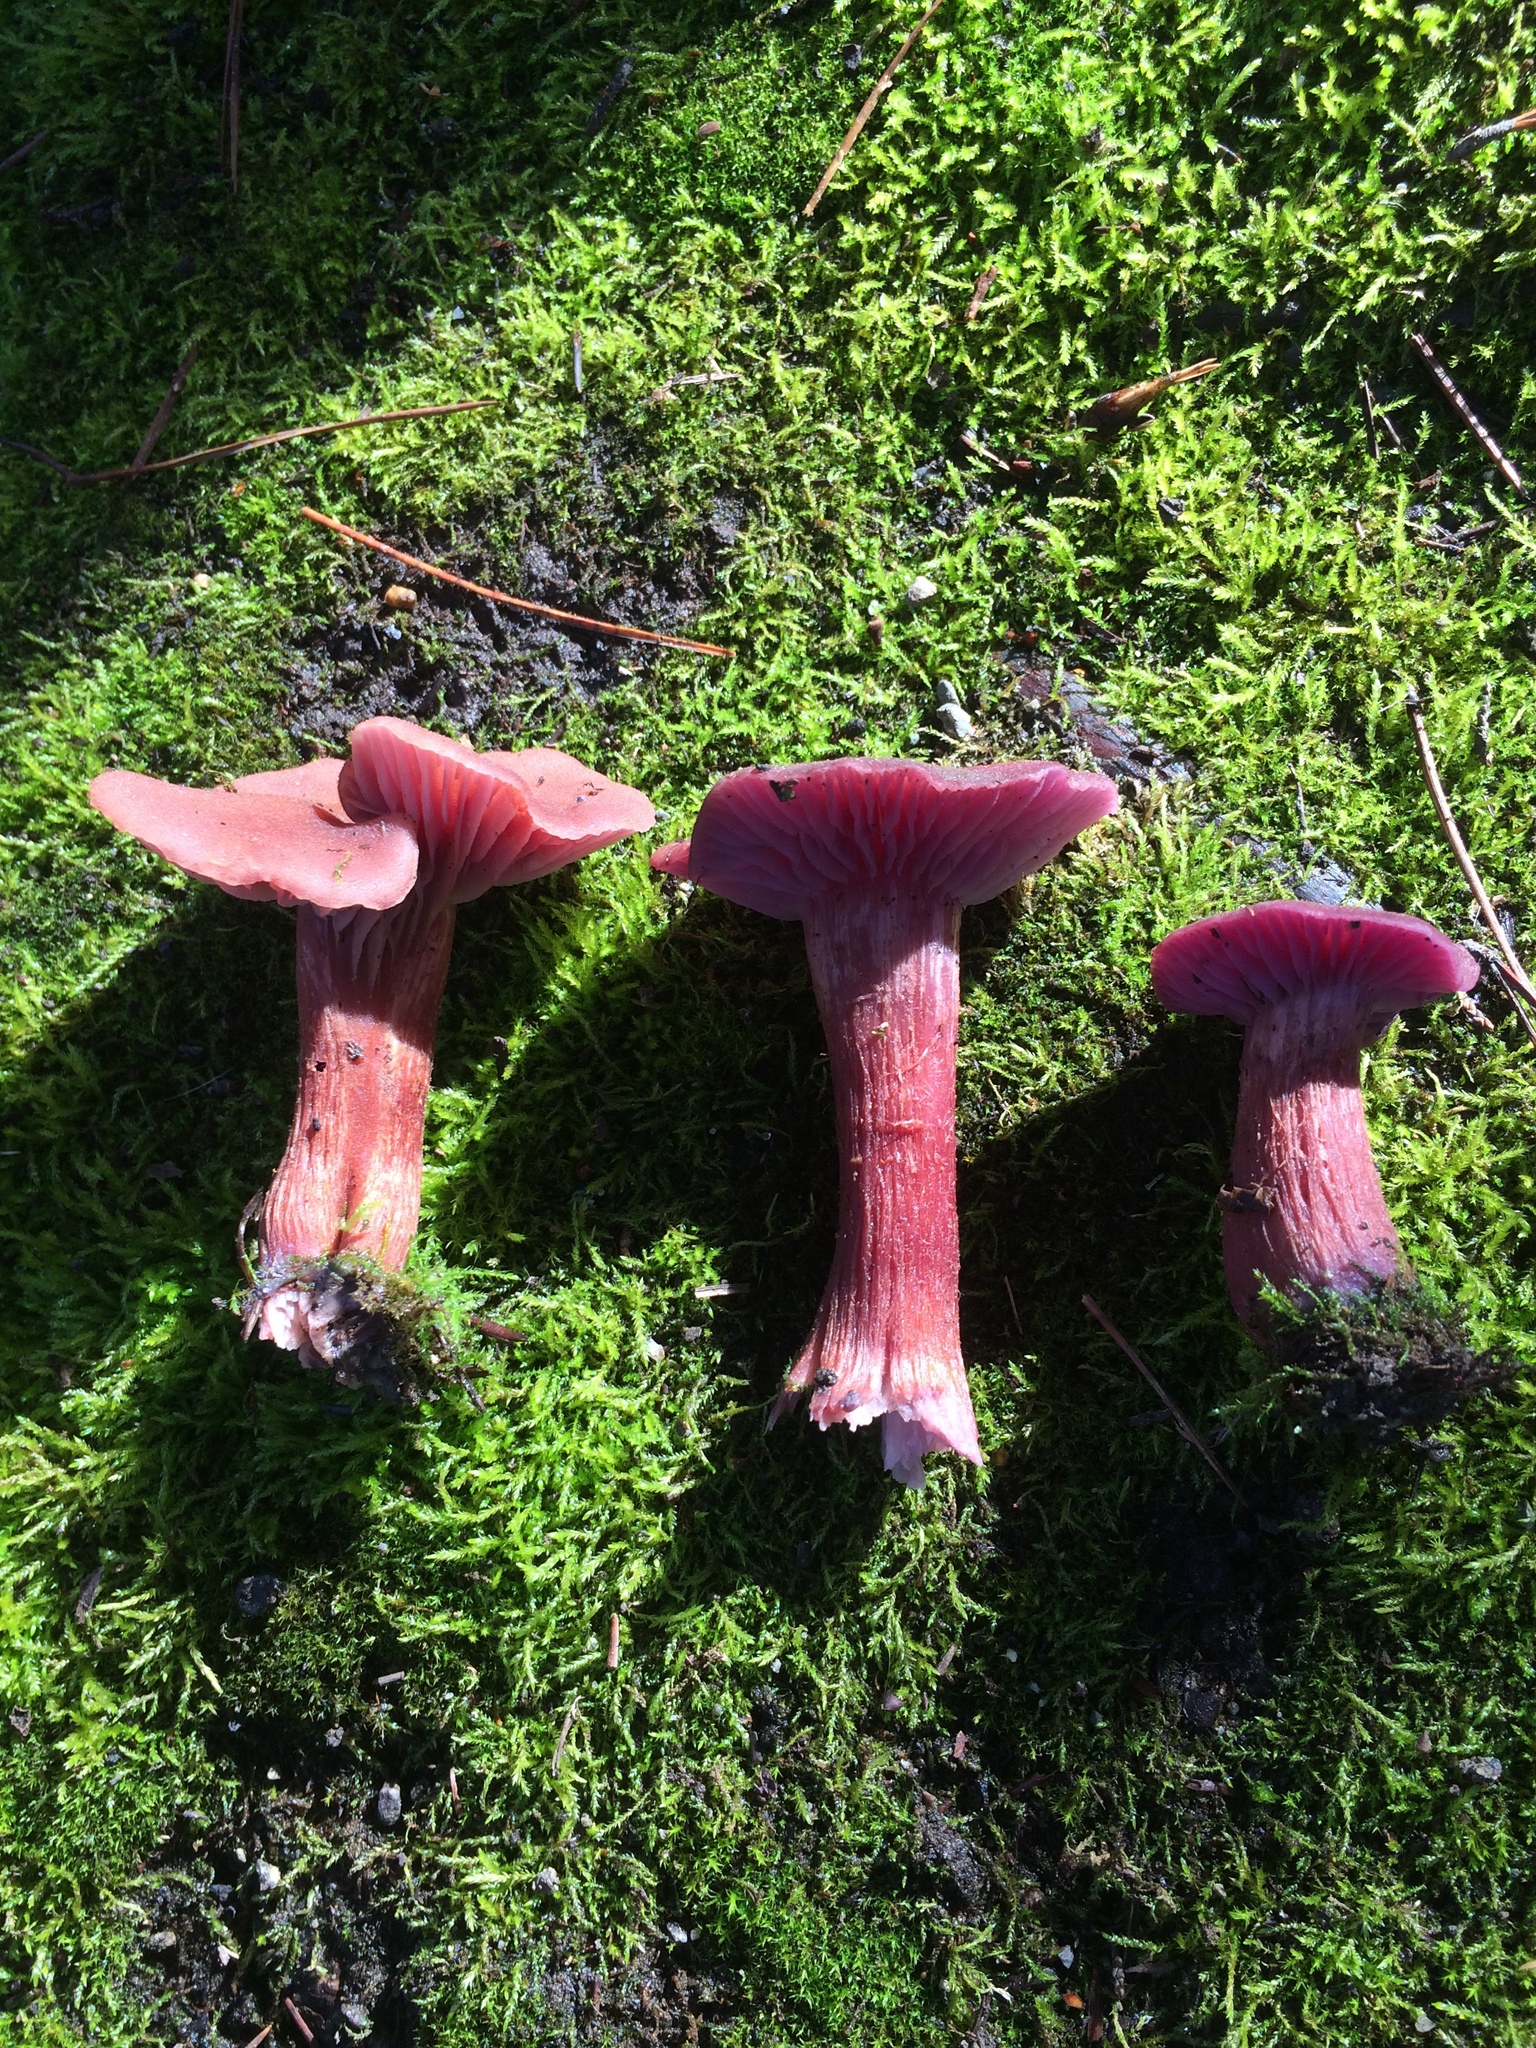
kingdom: Fungi
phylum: Basidiomycota
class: Agaricomycetes
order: Agaricales
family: Hydnangiaceae
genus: Laccaria
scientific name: Laccaria amethysteo-occidentalis
